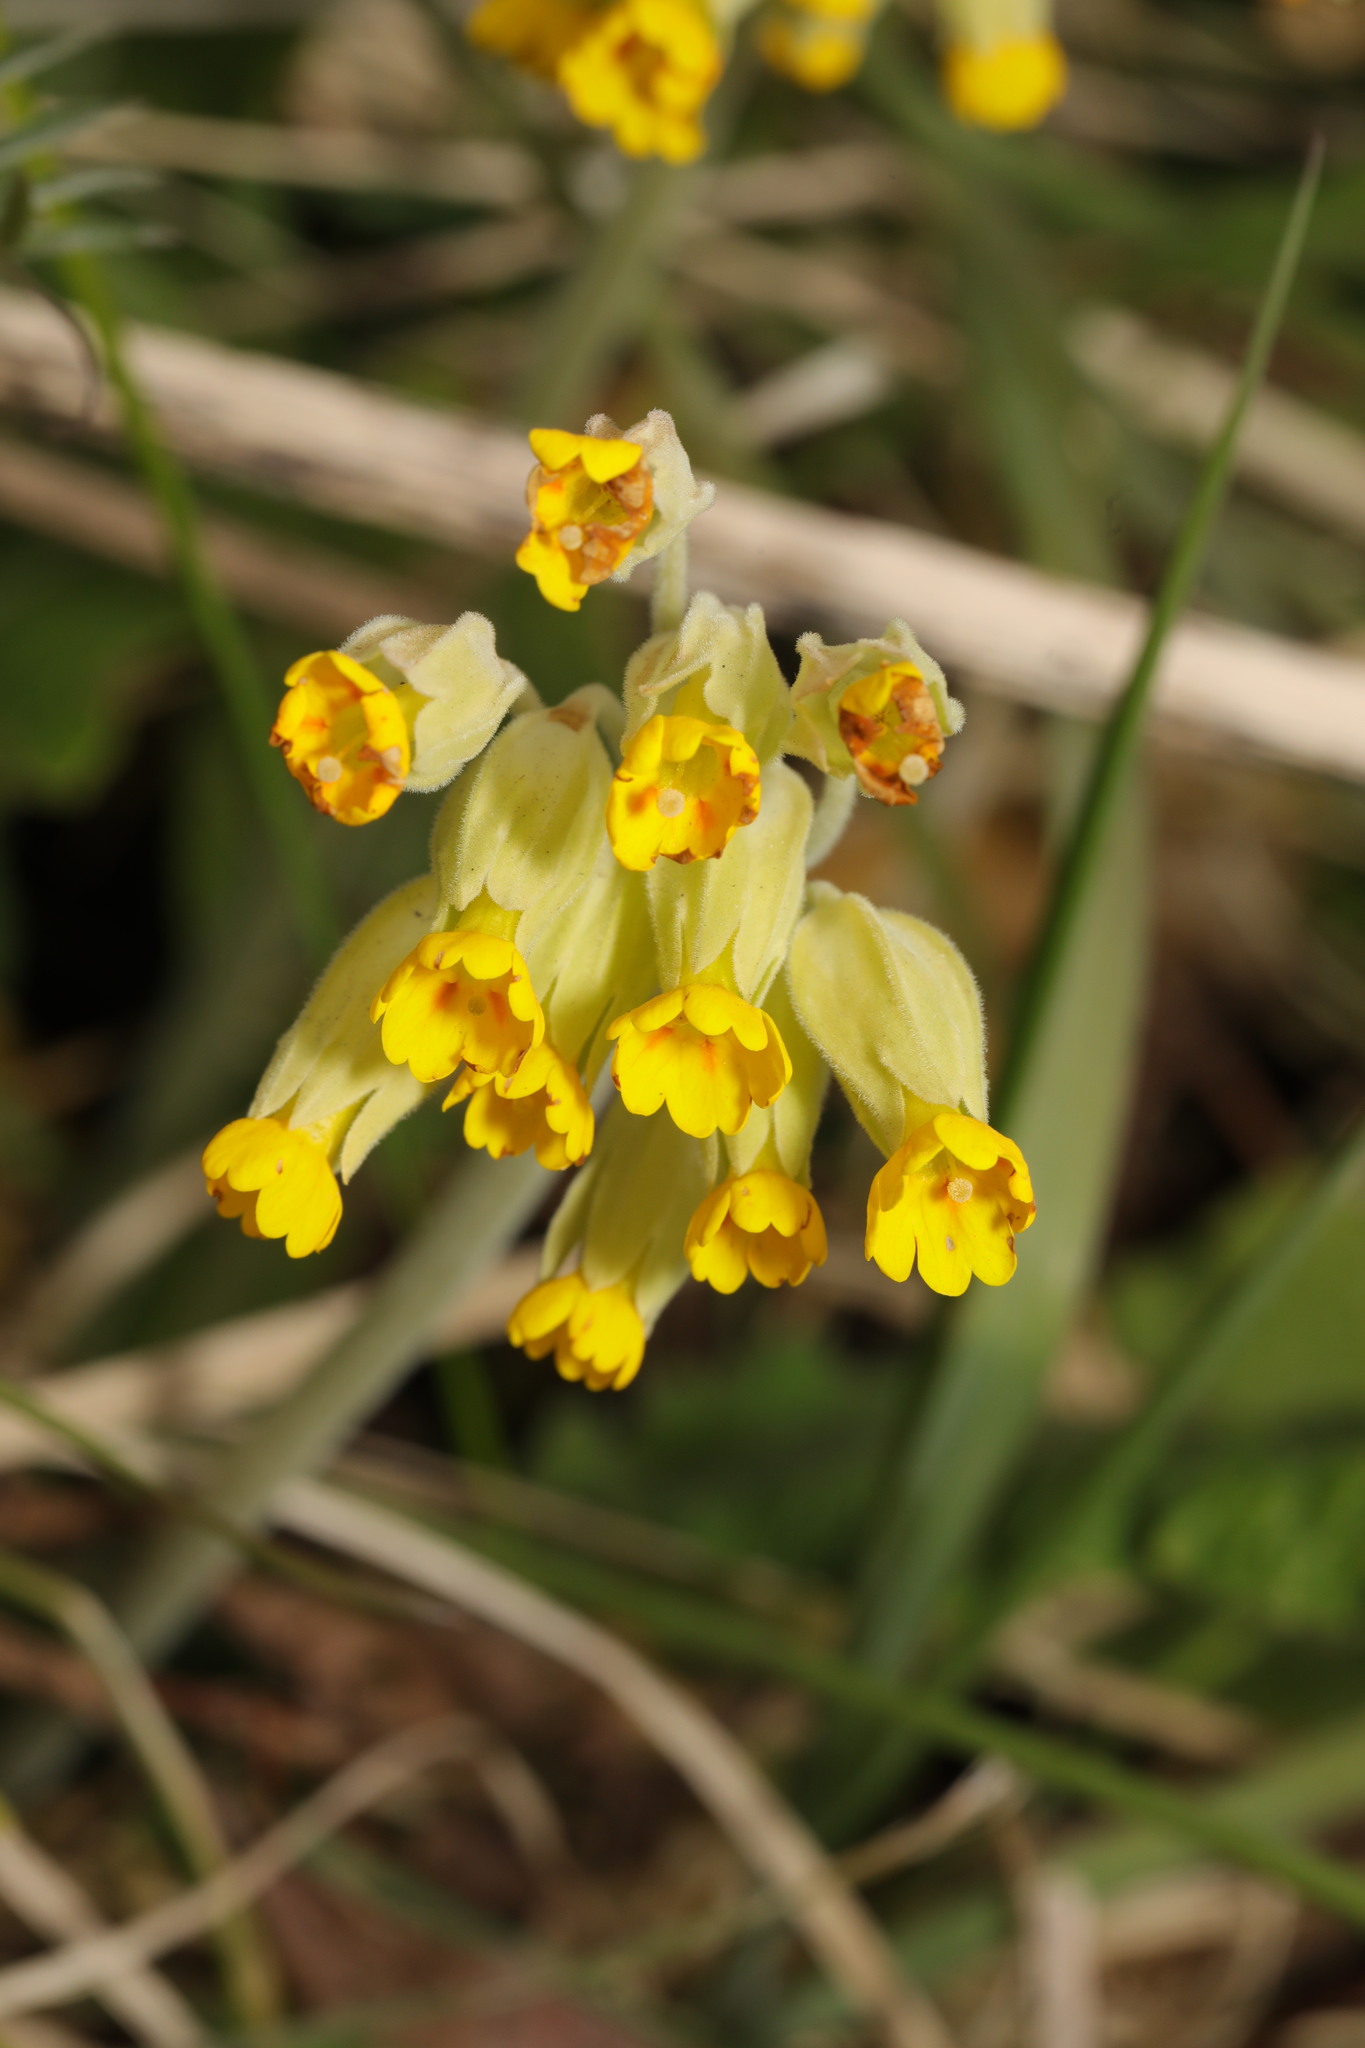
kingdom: Plantae
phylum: Tracheophyta
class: Magnoliopsida
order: Ericales
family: Primulaceae
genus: Primula
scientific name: Primula veris
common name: Cowslip
